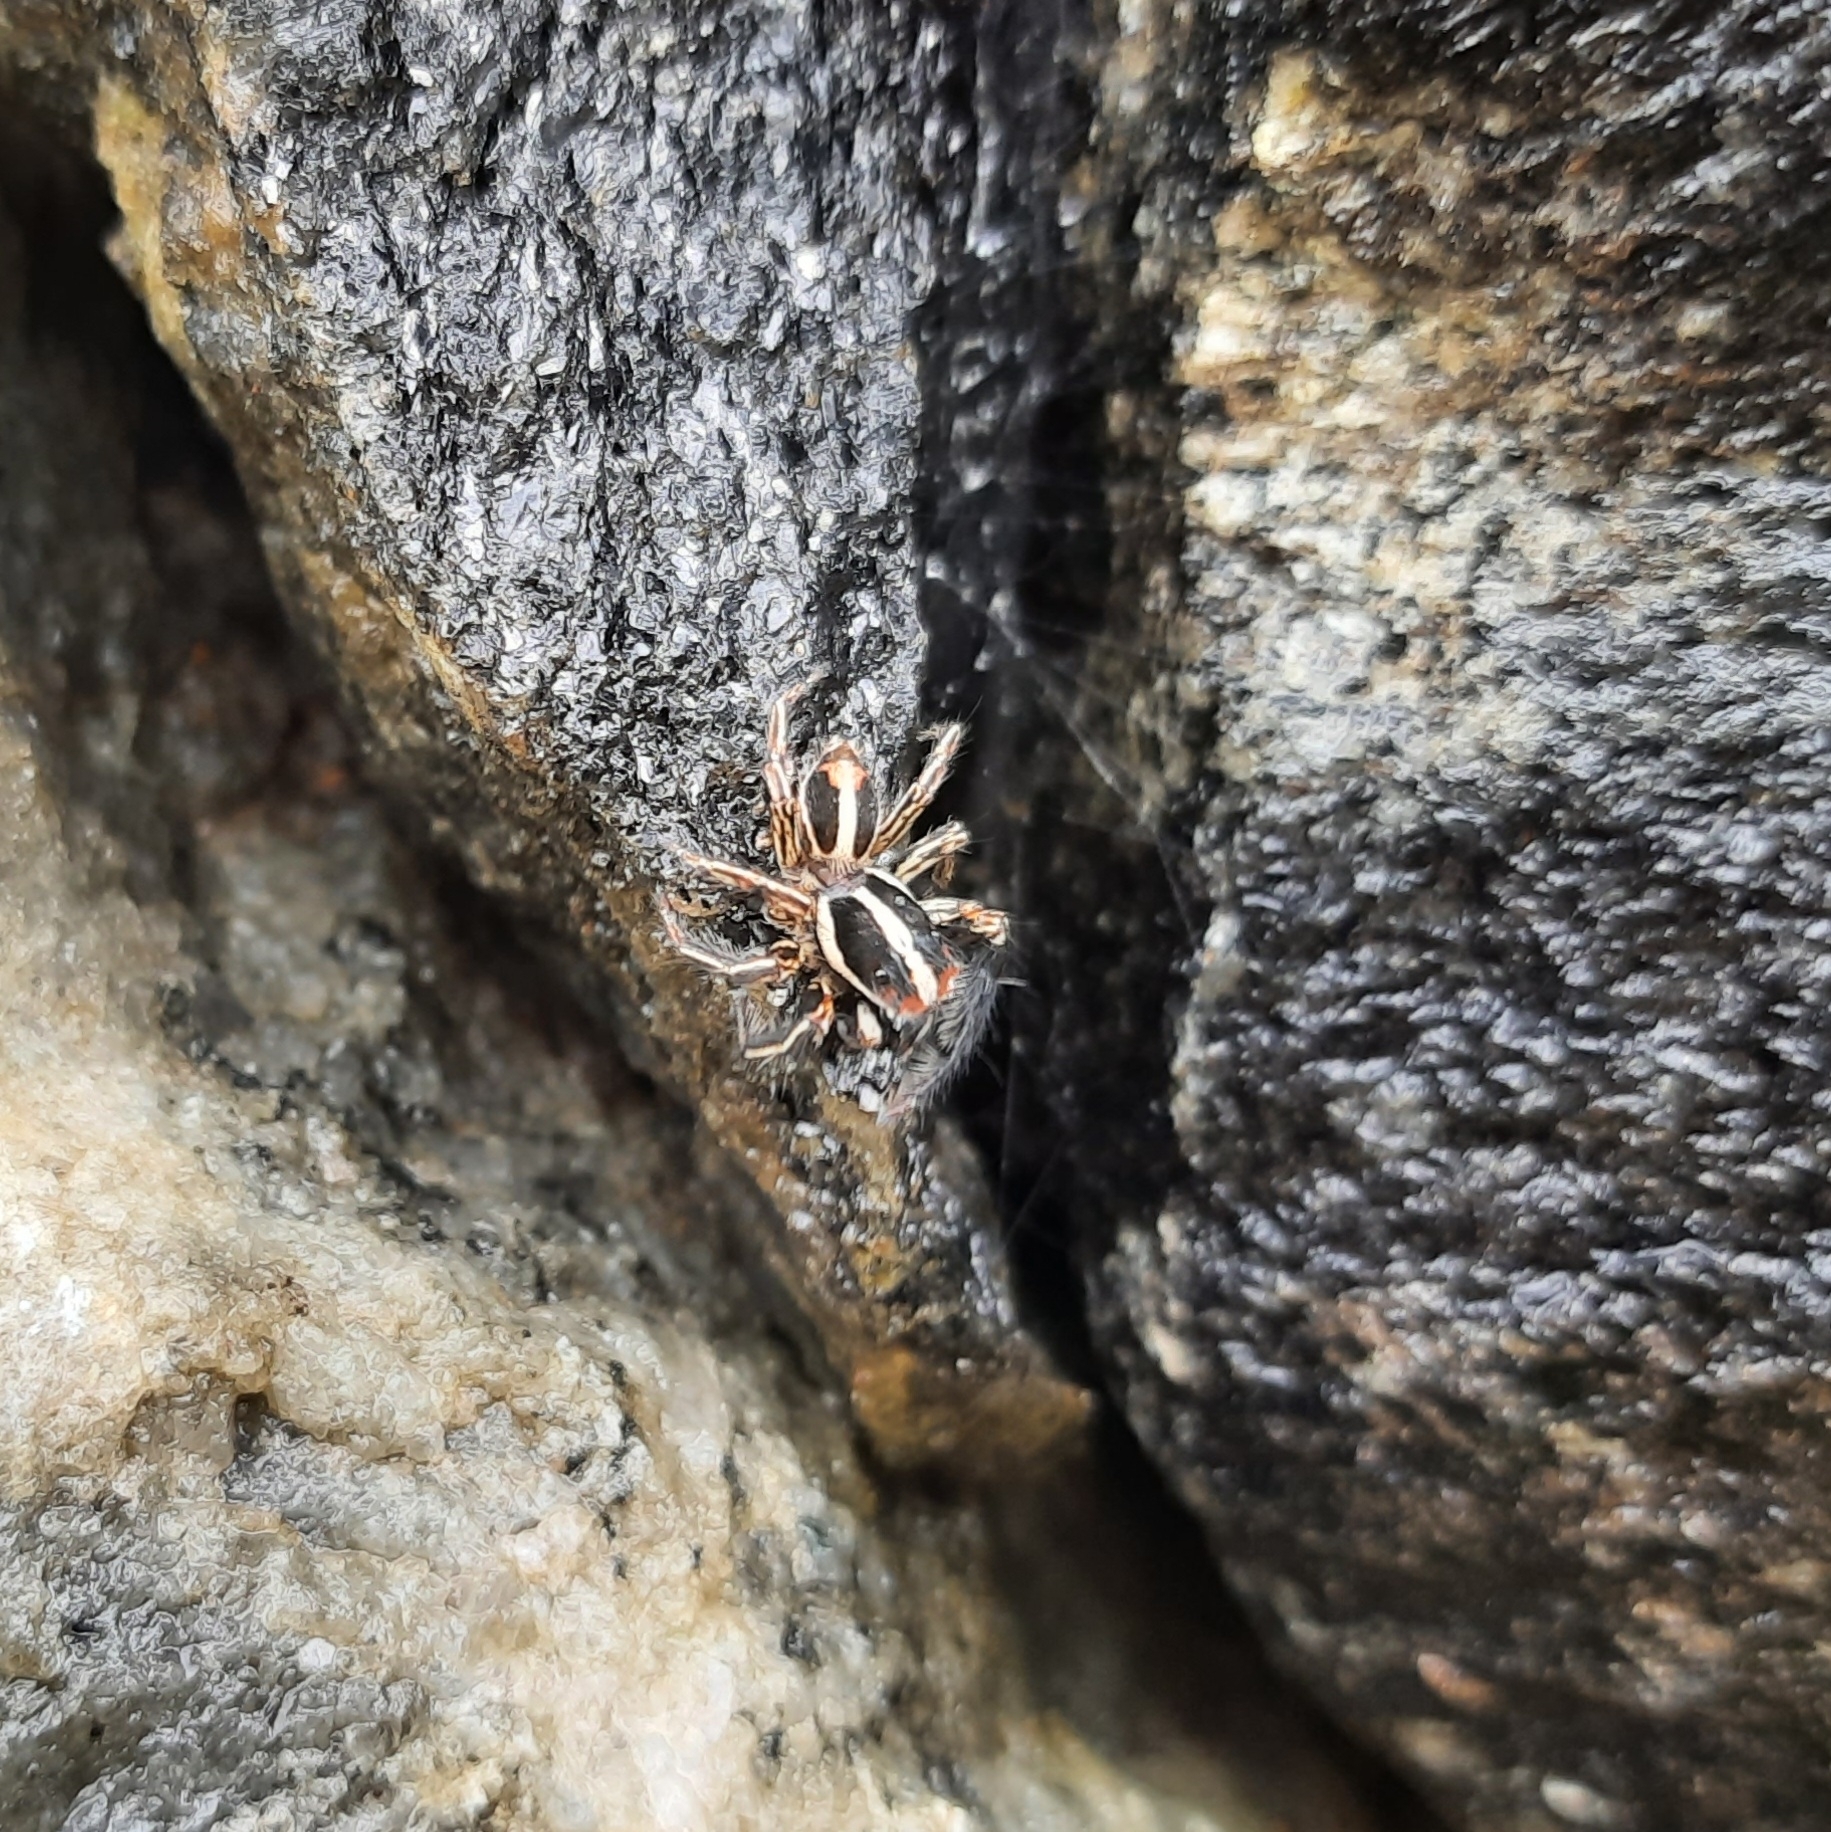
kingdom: Animalia
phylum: Arthropoda
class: Arachnida
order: Araneae
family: Salticidae
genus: Plexippus
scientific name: Plexippus paykulli
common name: Pantropical jumper
